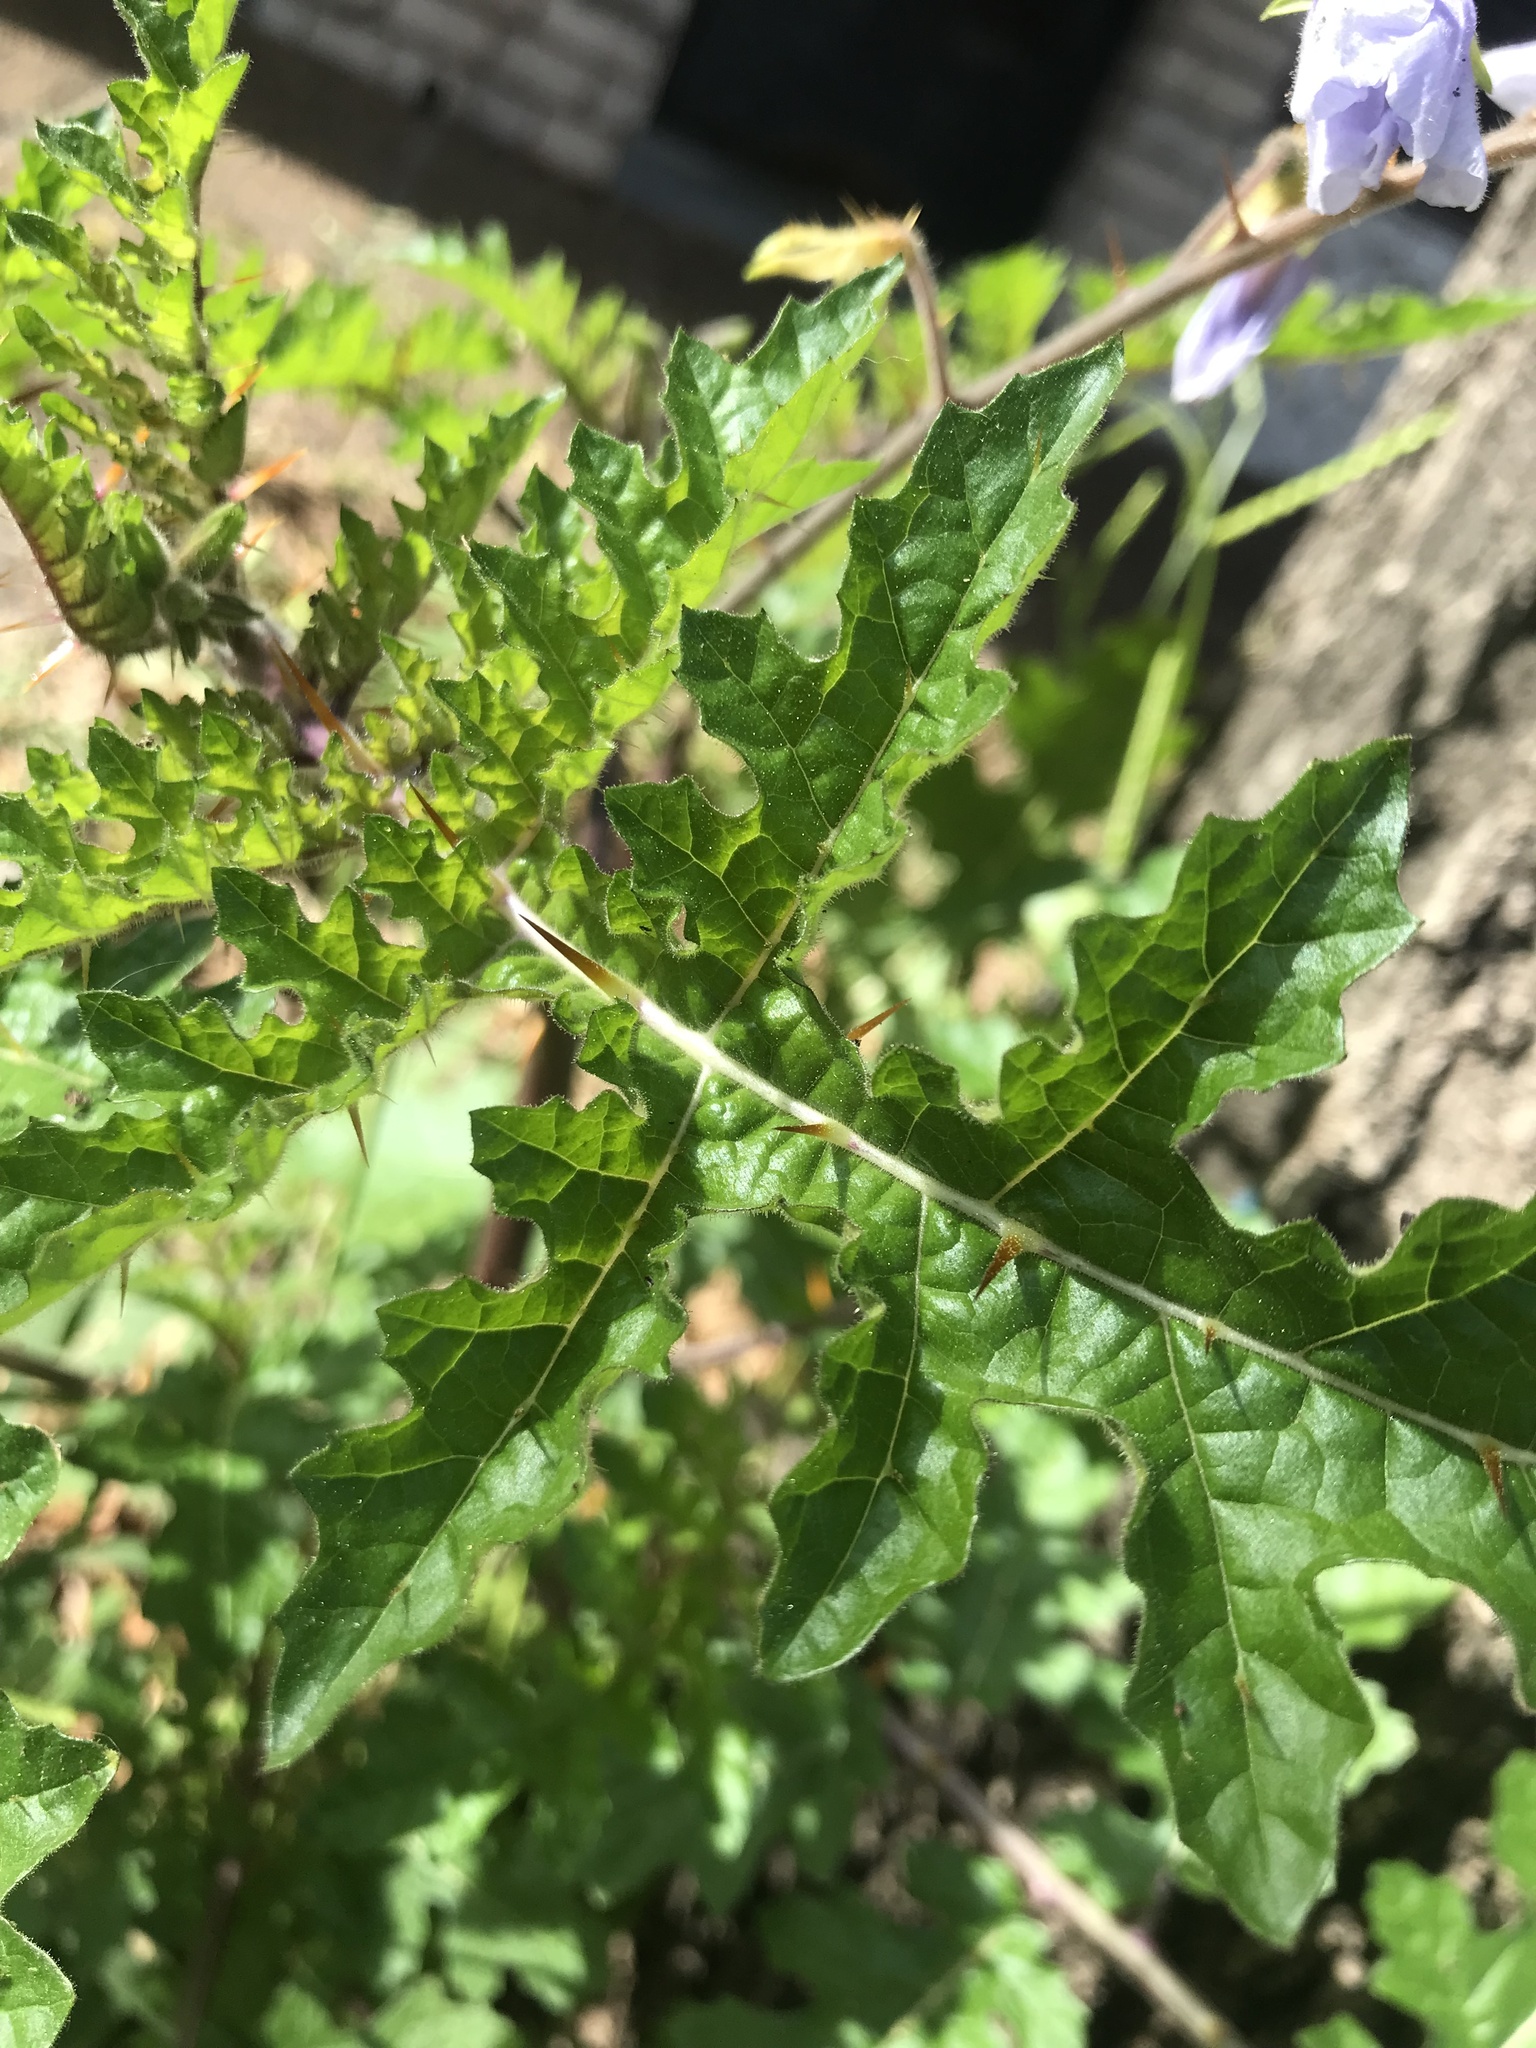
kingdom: Plantae
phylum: Tracheophyta
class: Magnoliopsida
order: Solanales
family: Solanaceae
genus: Solanum
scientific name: Solanum sisymbriifolium
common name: Red buffalo-bur
